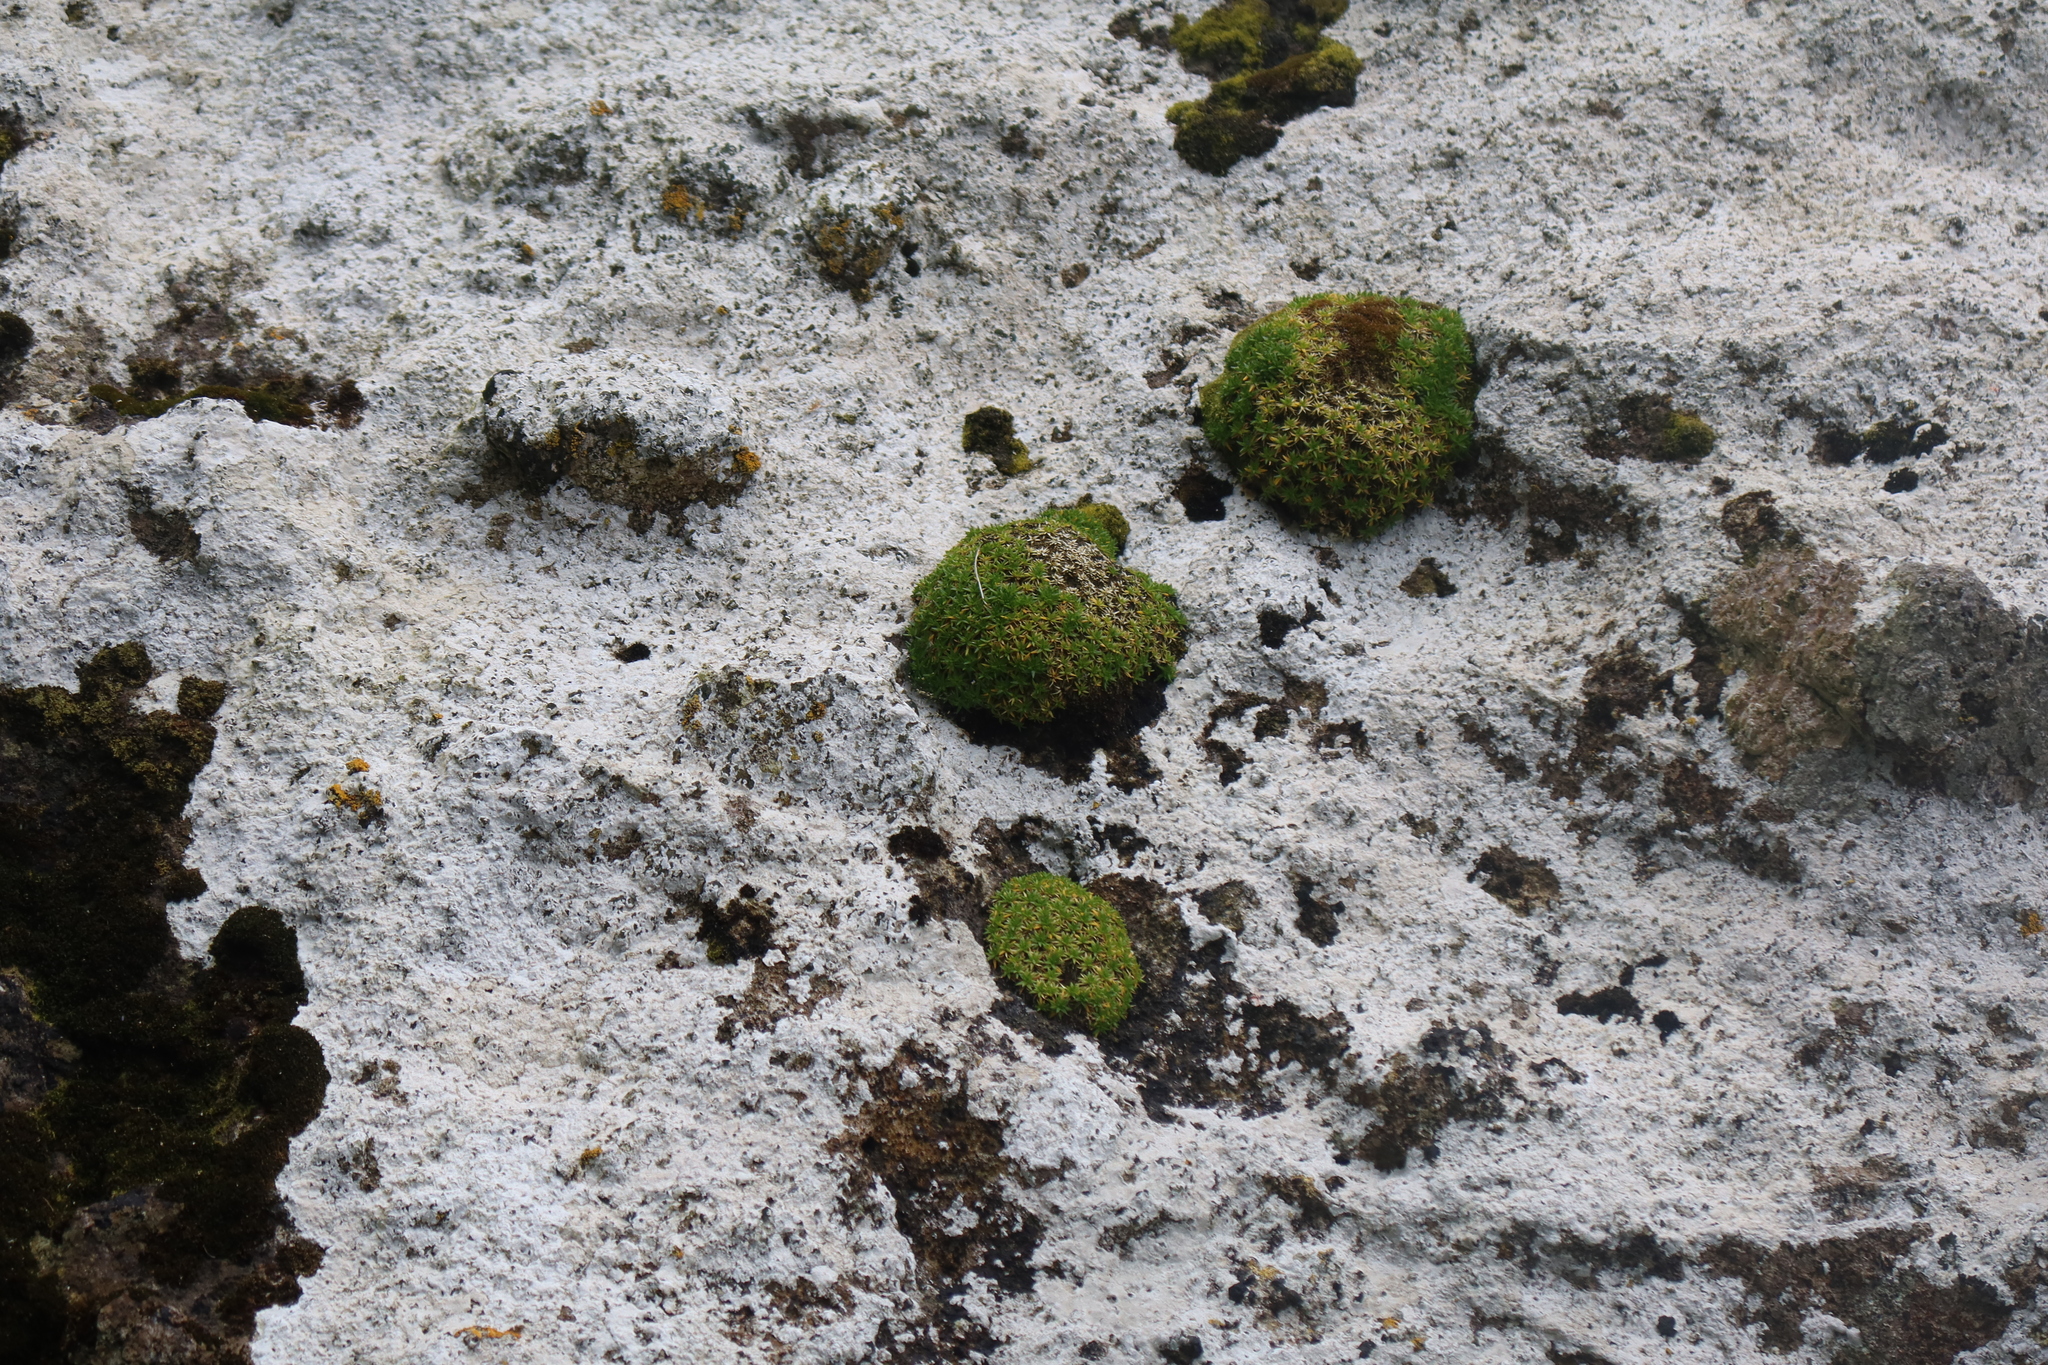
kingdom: Plantae
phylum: Tracheophyta
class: Magnoliopsida
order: Caryophyllales
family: Caryophyllaceae
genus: Colobanthus
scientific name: Colobanthus muscoides
